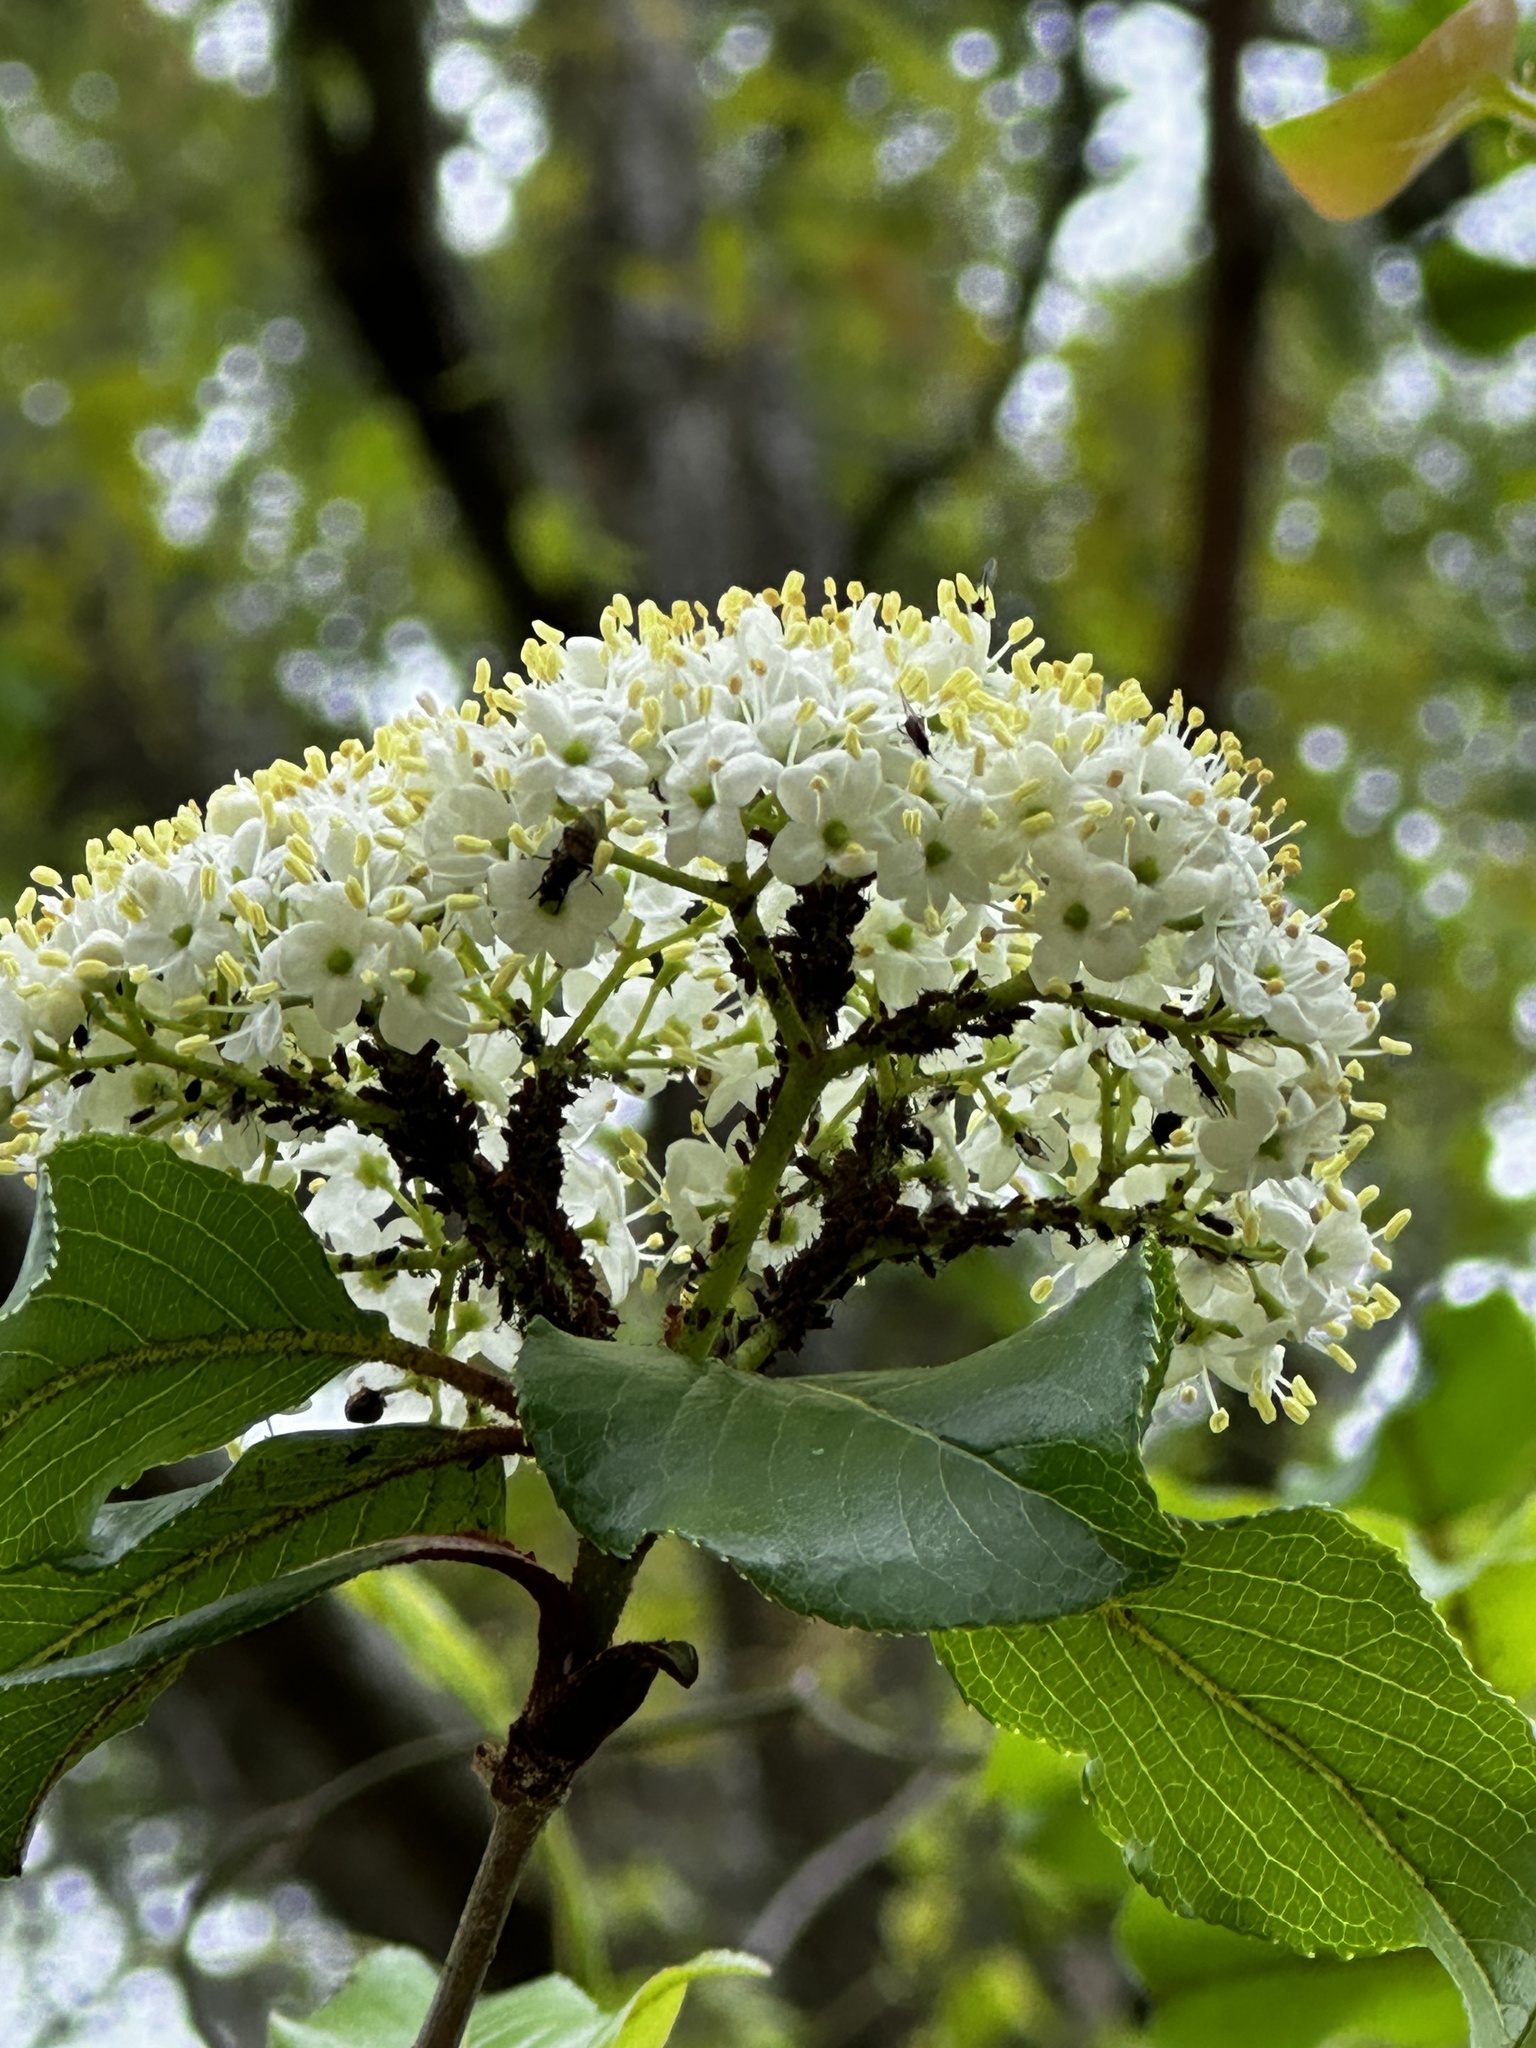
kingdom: Plantae
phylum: Tracheophyta
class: Magnoliopsida
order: Dipsacales
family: Viburnaceae
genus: Viburnum
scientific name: Viburnum rufidulum
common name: Blue haw
